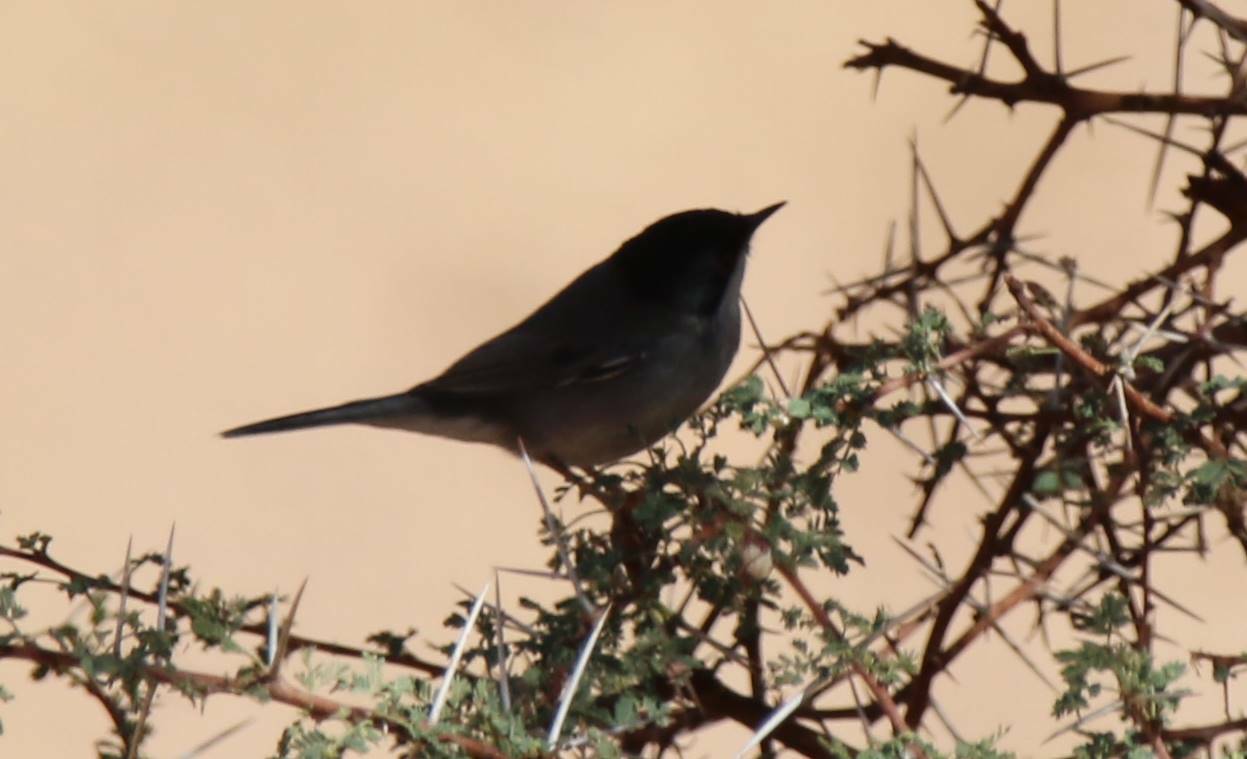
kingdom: Animalia
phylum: Chordata
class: Aves
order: Passeriformes
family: Sylviidae
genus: Curruca
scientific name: Curruca melanocephala
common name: Sardinian warbler
